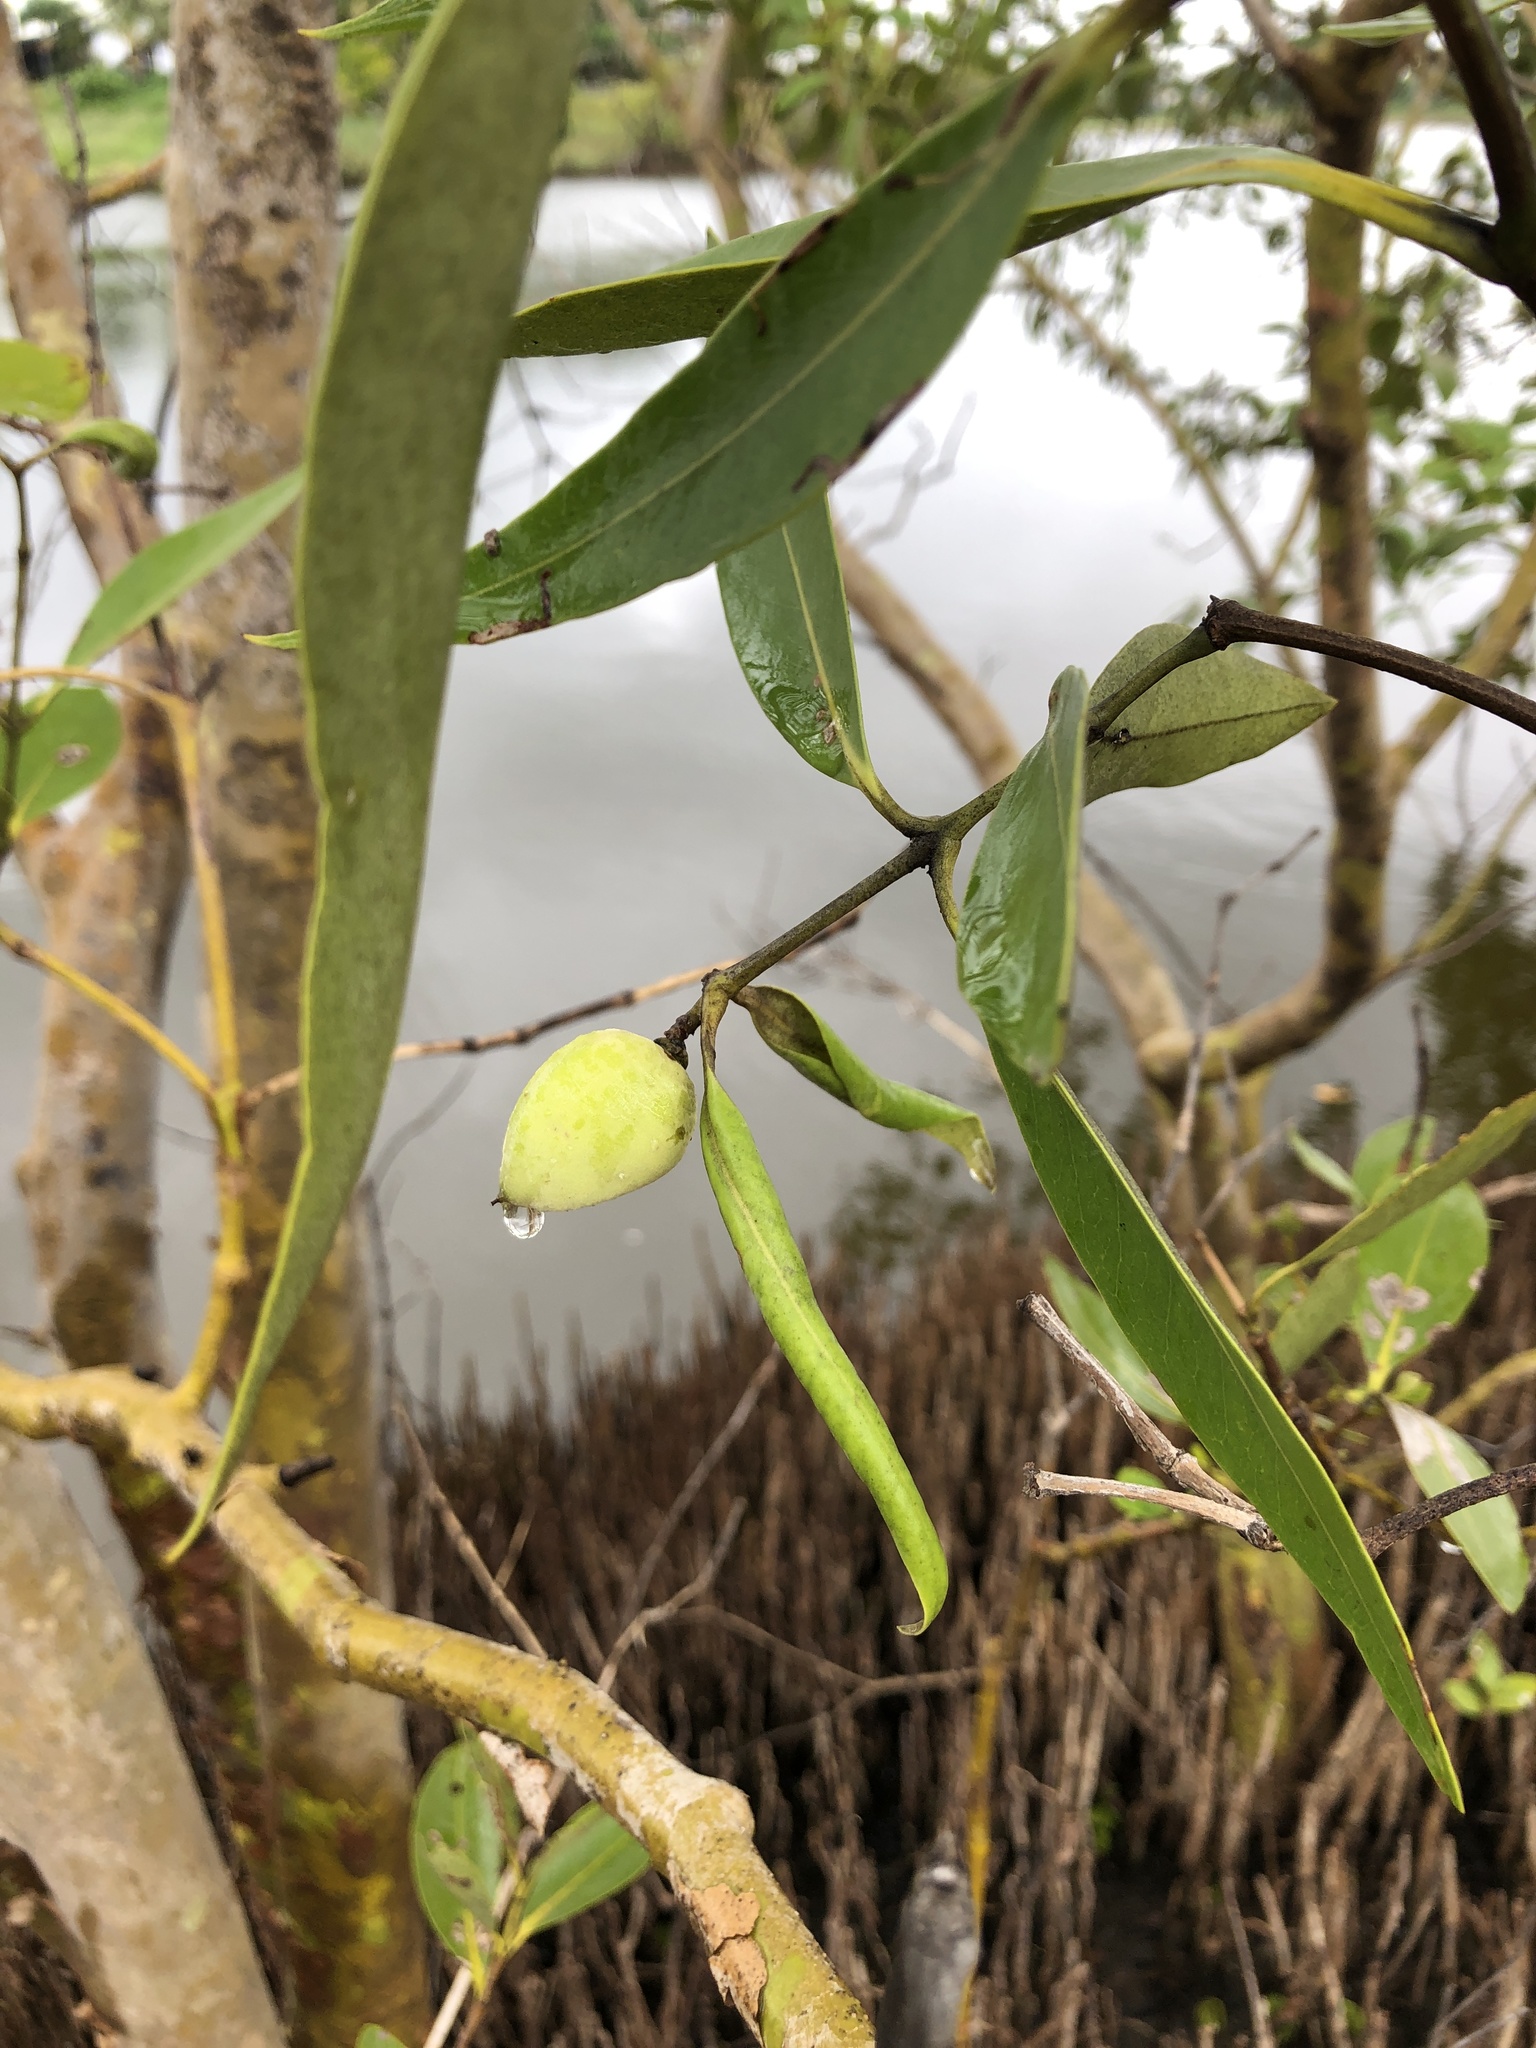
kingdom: Plantae
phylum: Tracheophyta
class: Magnoliopsida
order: Lamiales
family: Acanthaceae
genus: Avicennia
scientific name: Avicennia marina
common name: Gray mangrove
